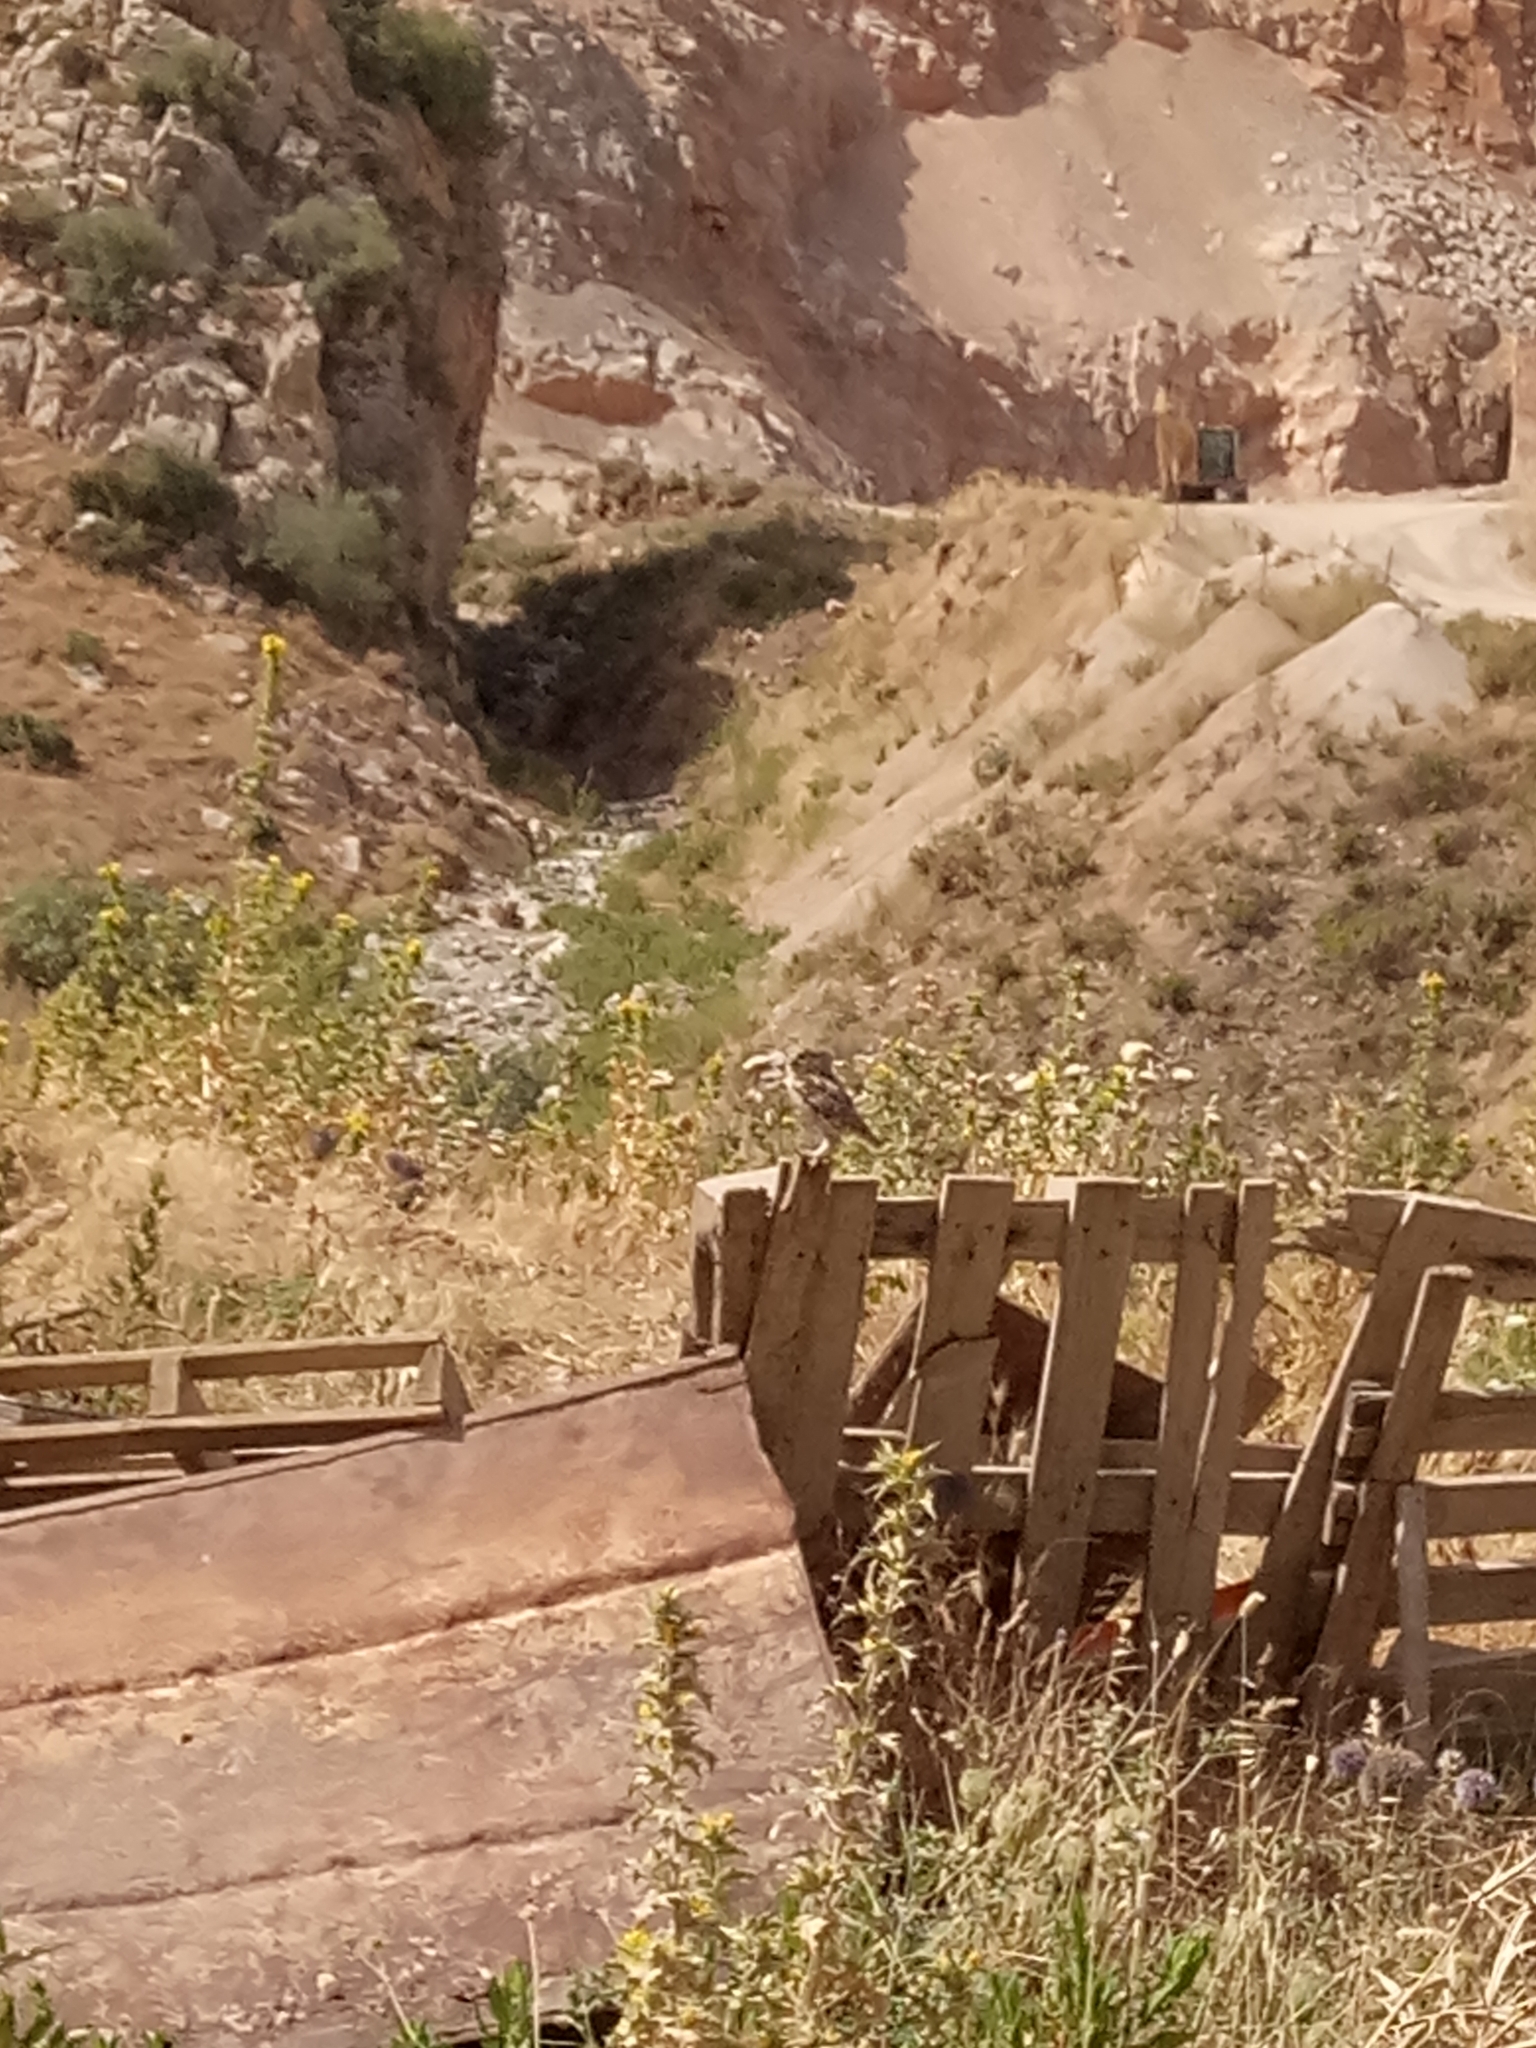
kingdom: Animalia
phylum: Chordata
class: Aves
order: Strigiformes
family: Strigidae
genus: Athene
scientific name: Athene noctua
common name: Little owl
